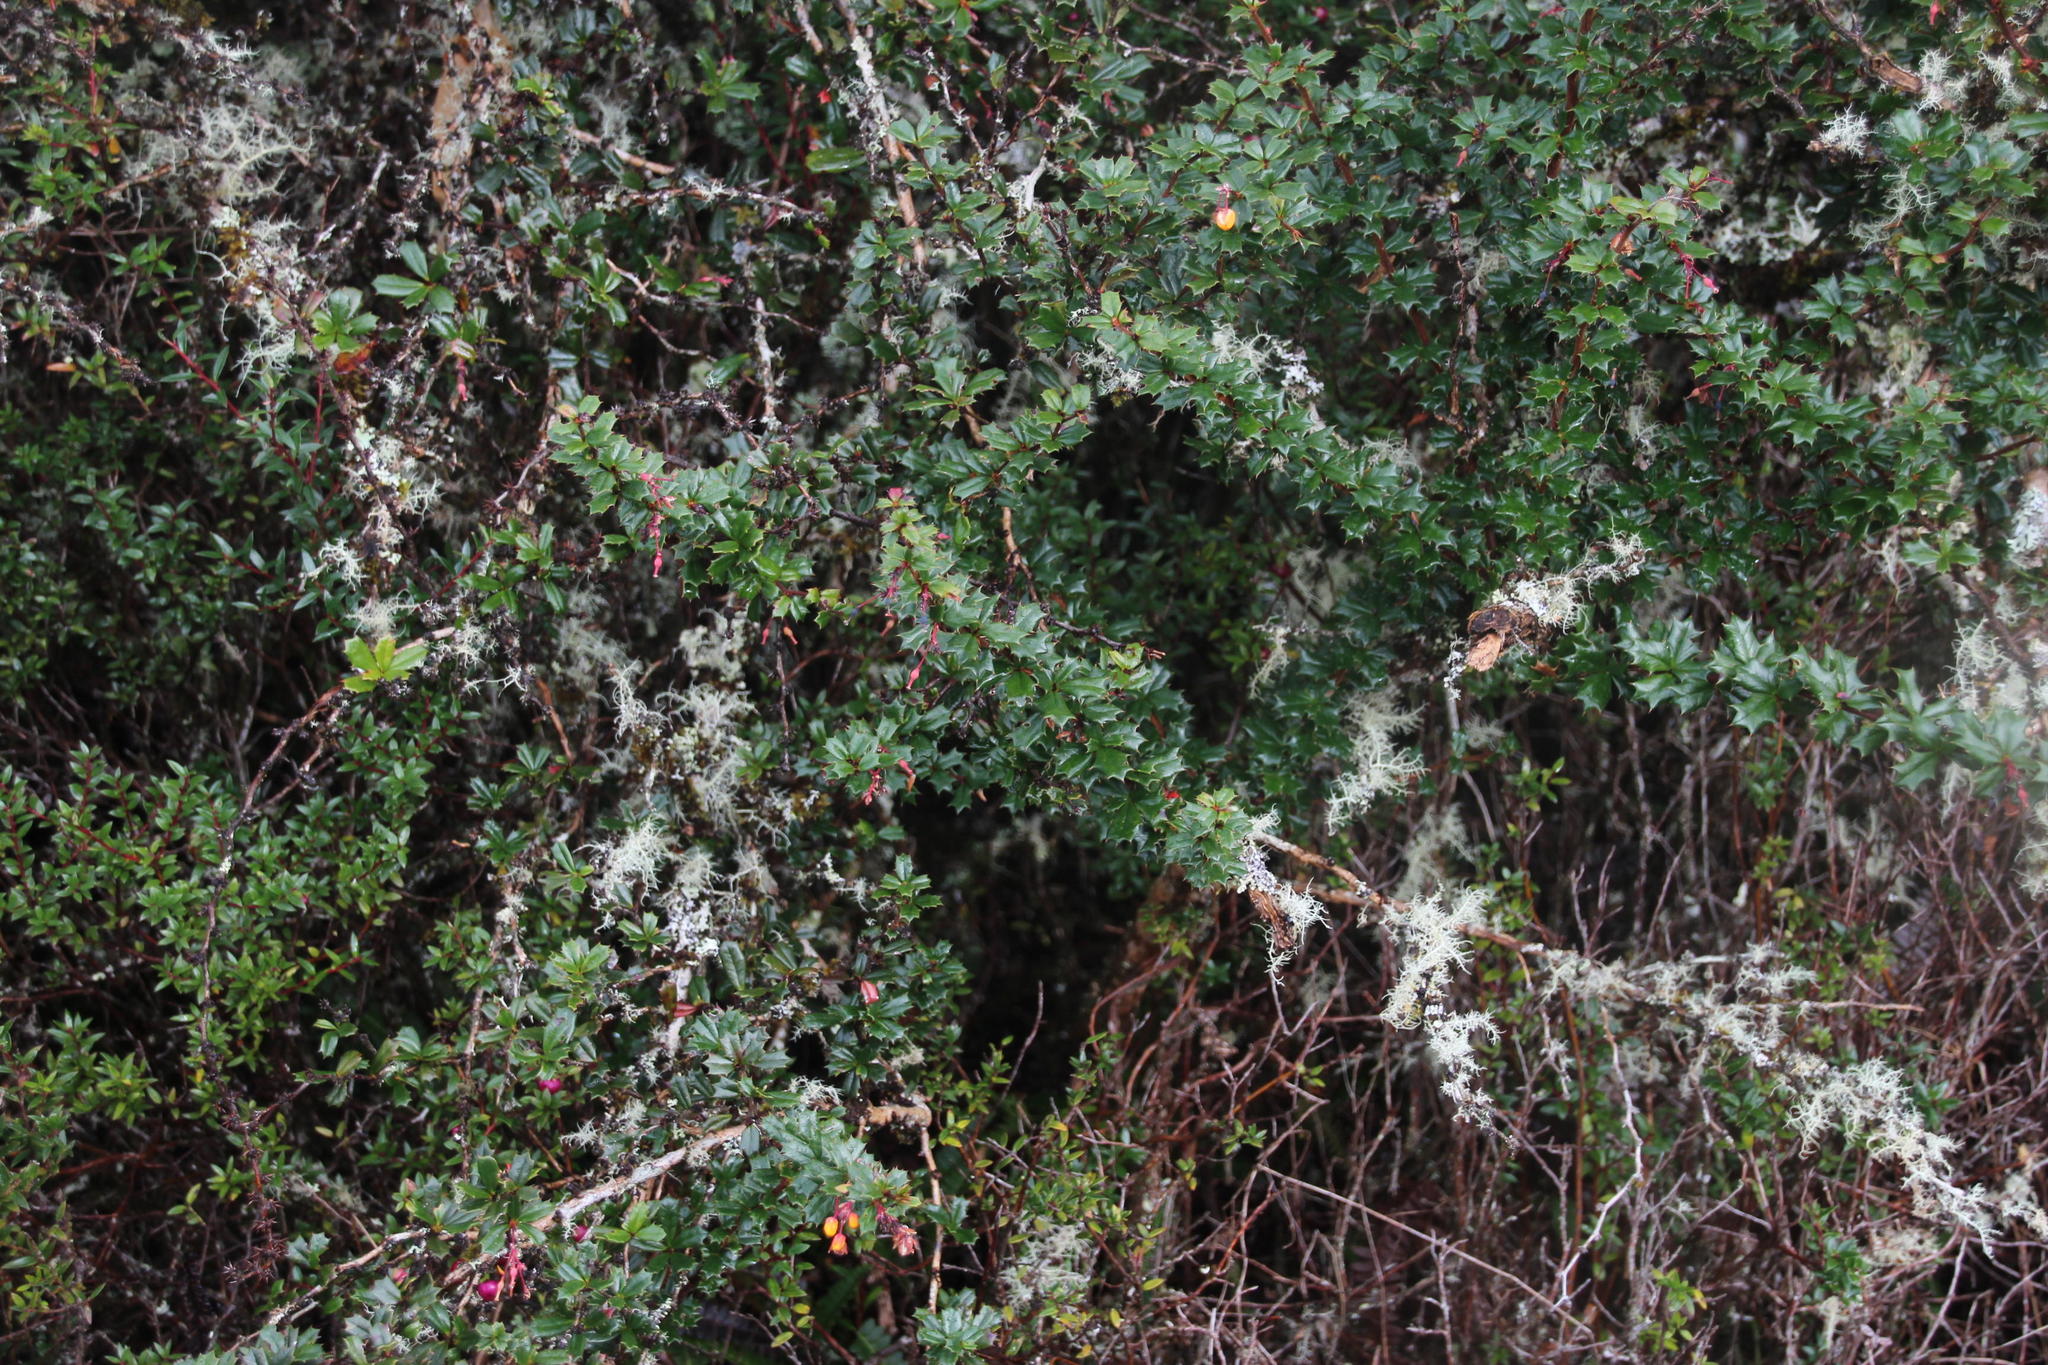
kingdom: Plantae
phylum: Tracheophyta
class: Magnoliopsida
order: Ranunculales
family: Berberidaceae
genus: Berberis
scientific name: Berberis darwinii
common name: Darwin's barberry
